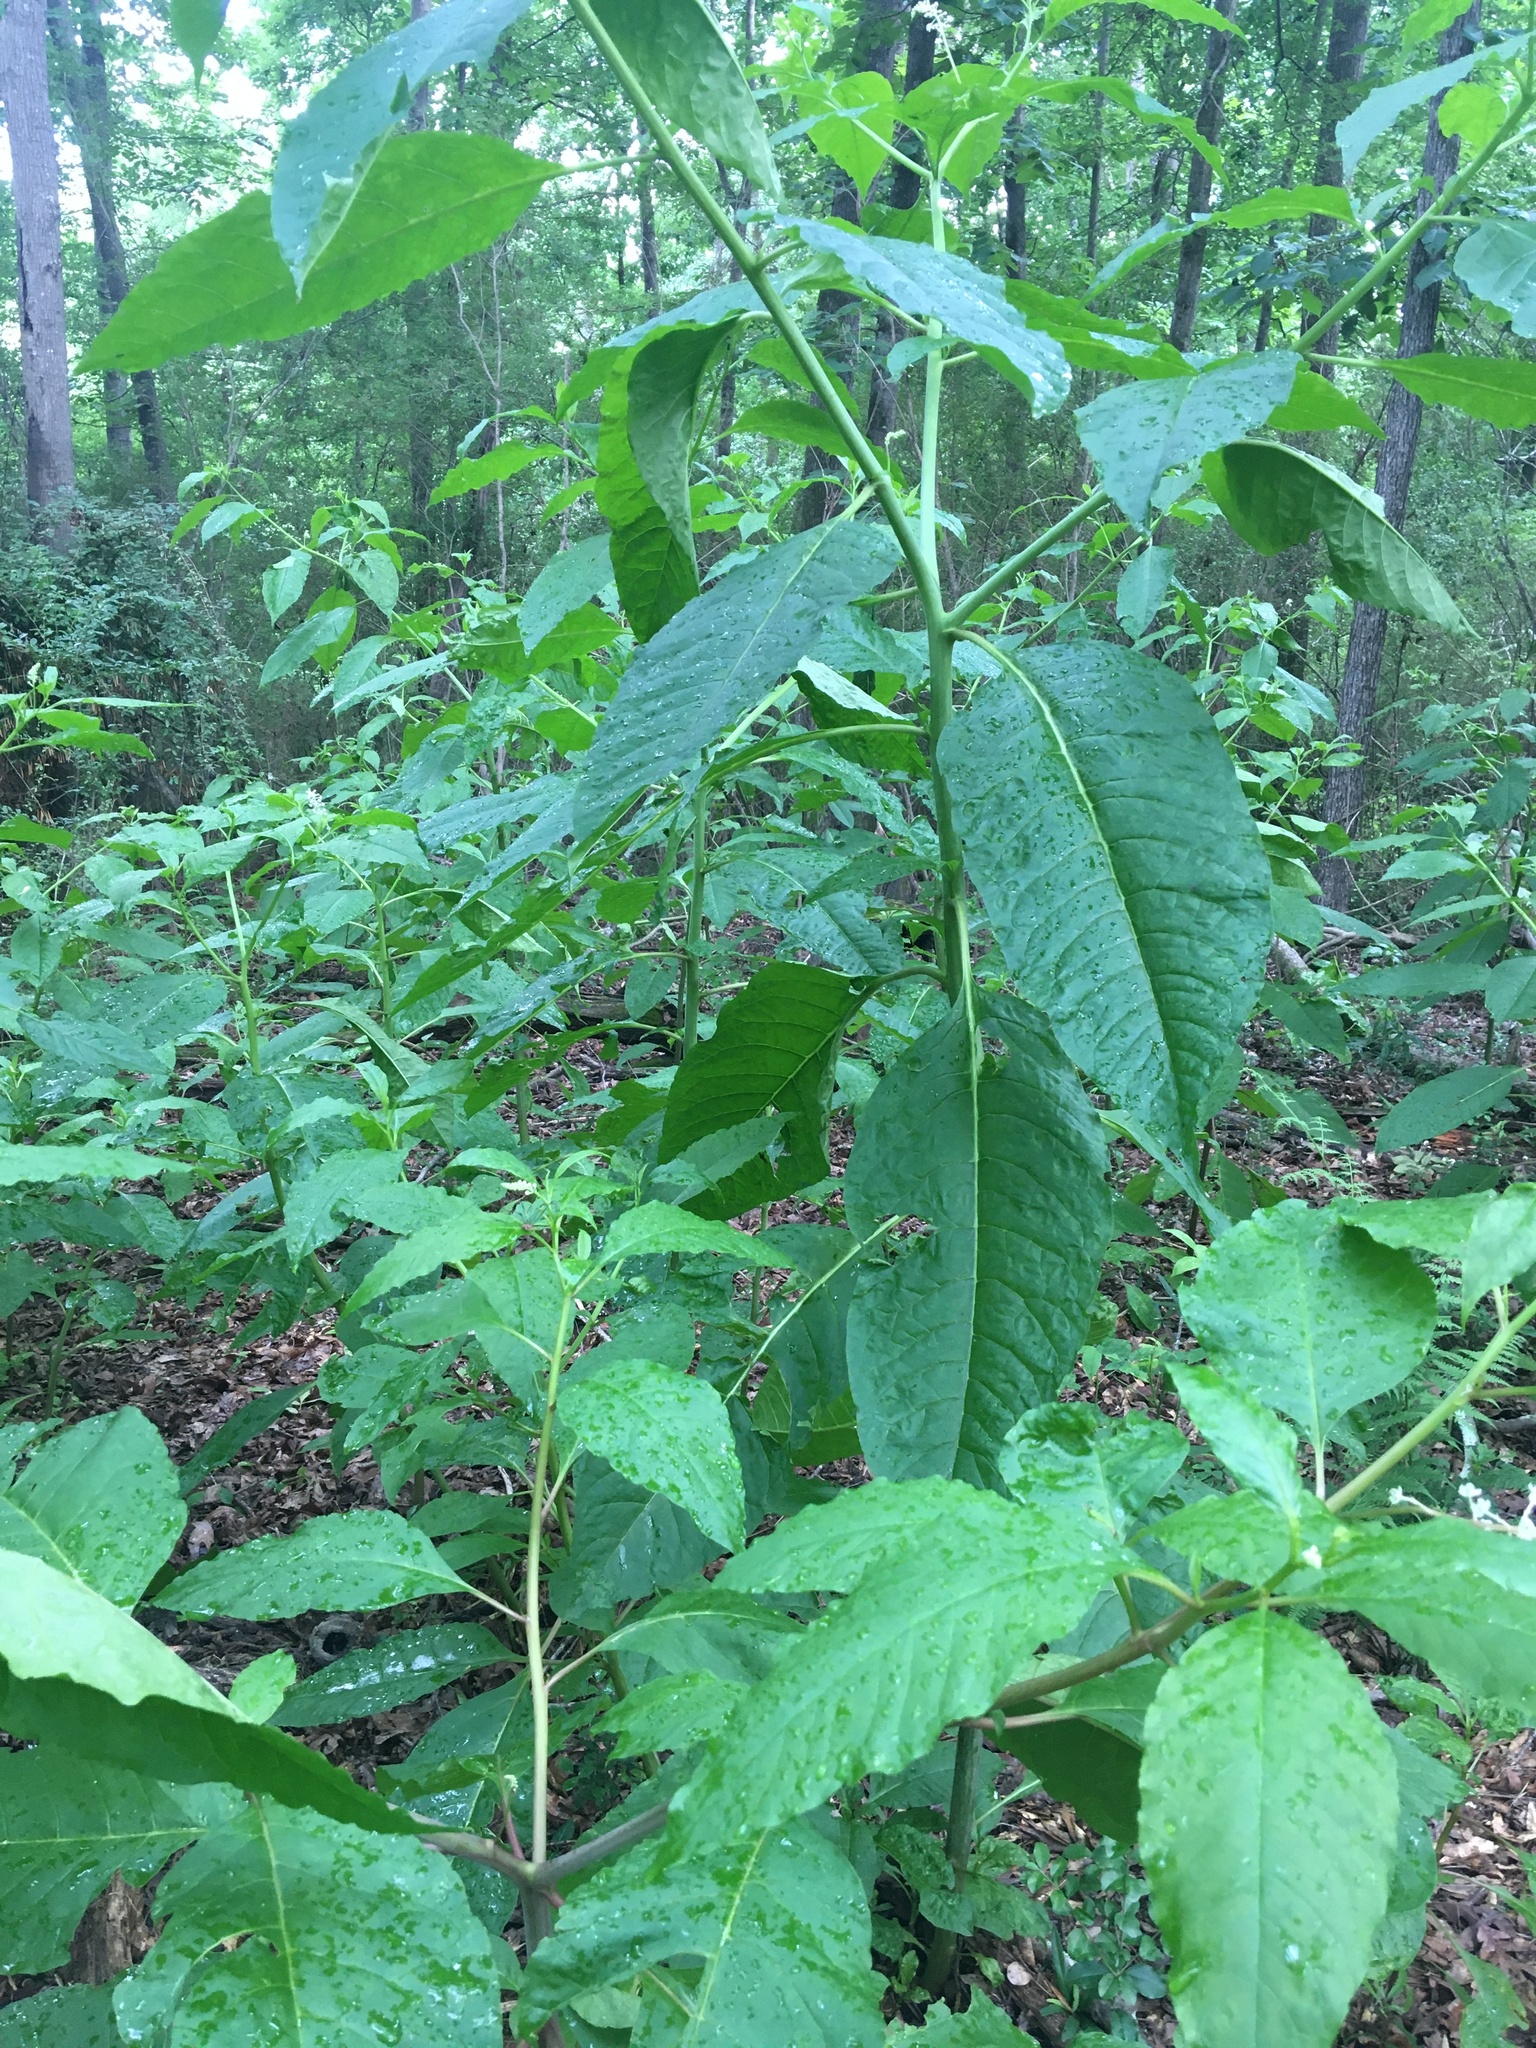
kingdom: Plantae
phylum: Tracheophyta
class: Magnoliopsida
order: Caryophyllales
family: Phytolaccaceae
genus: Phytolacca
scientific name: Phytolacca americana
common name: American pokeweed
